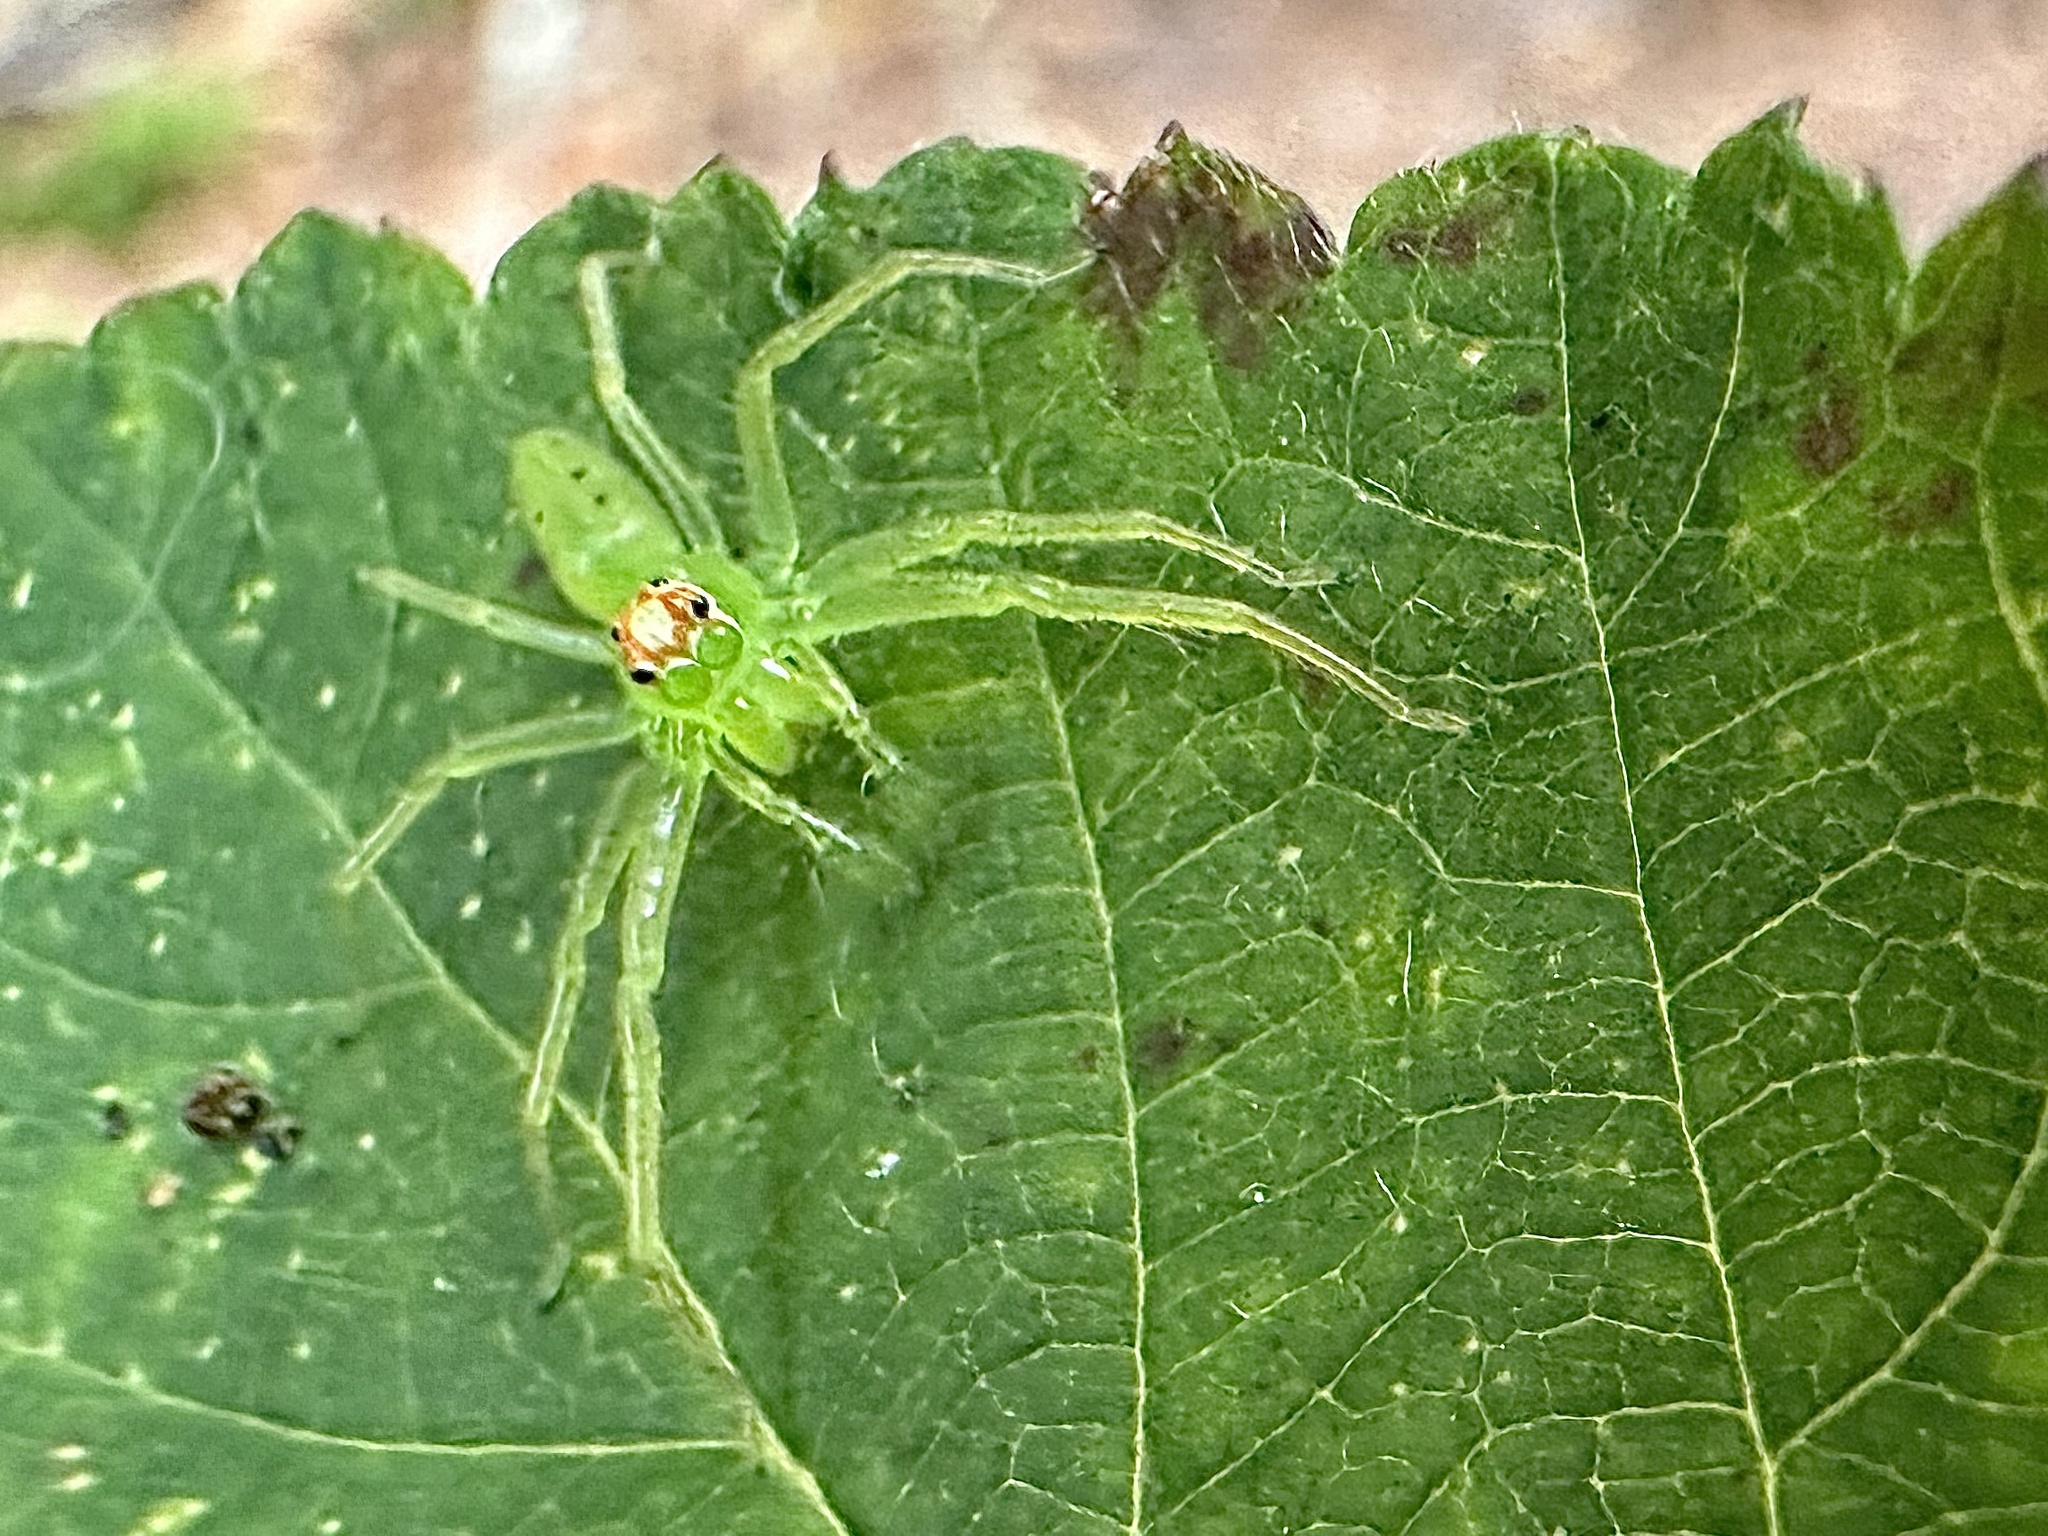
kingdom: Animalia
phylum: Arthropoda
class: Arachnida
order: Araneae
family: Salticidae
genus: Lyssomanes
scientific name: Lyssomanes viridis
